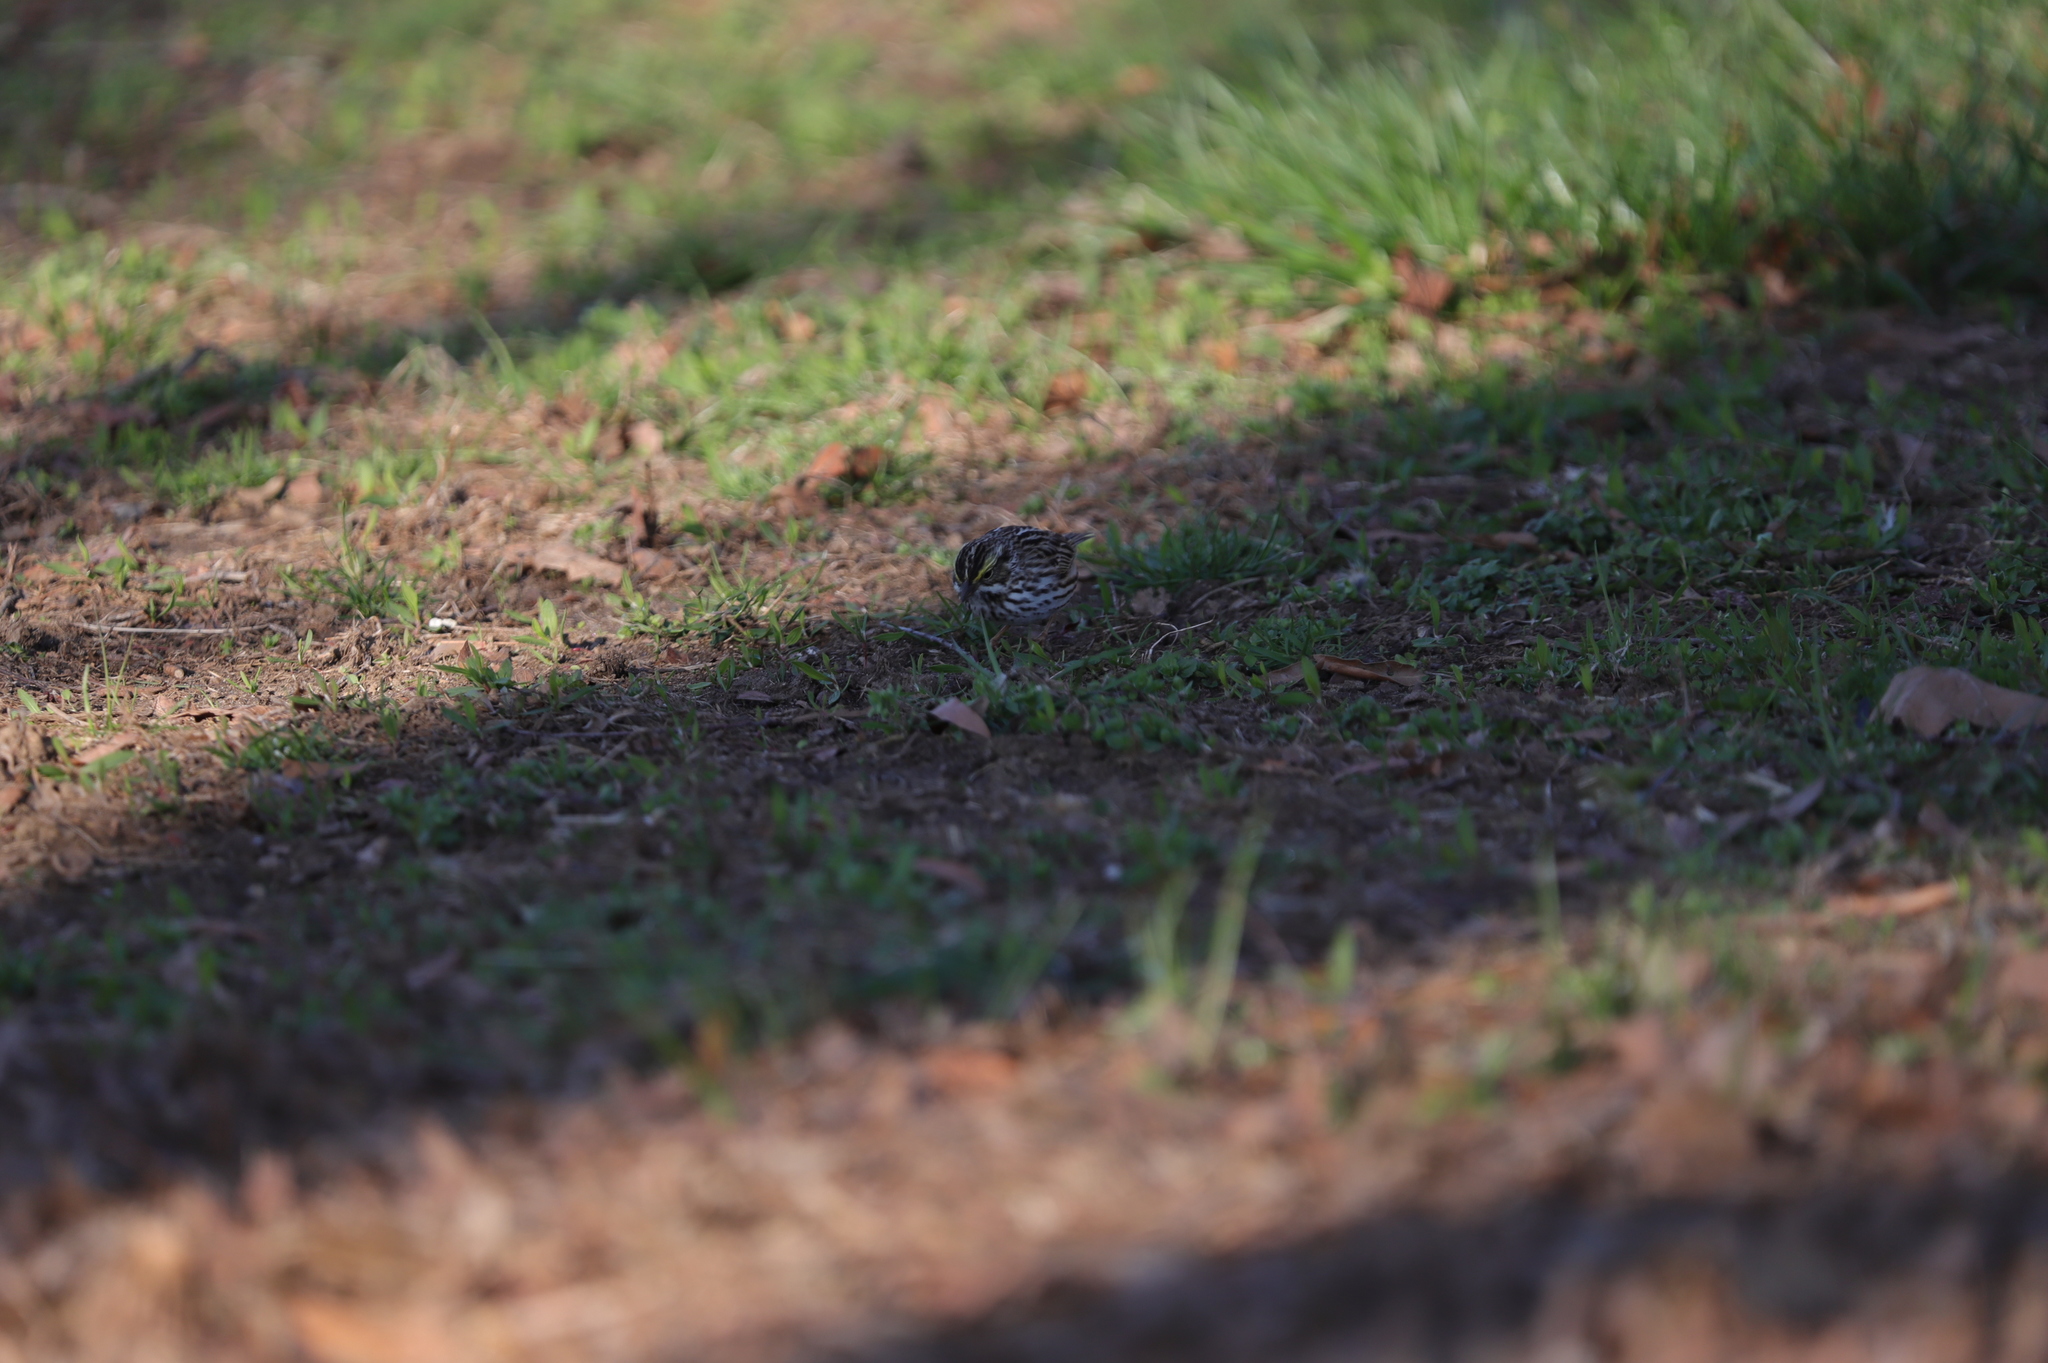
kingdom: Animalia
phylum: Chordata
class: Aves
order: Passeriformes
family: Passerellidae
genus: Passerculus
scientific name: Passerculus sandwichensis
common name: Savannah sparrow
